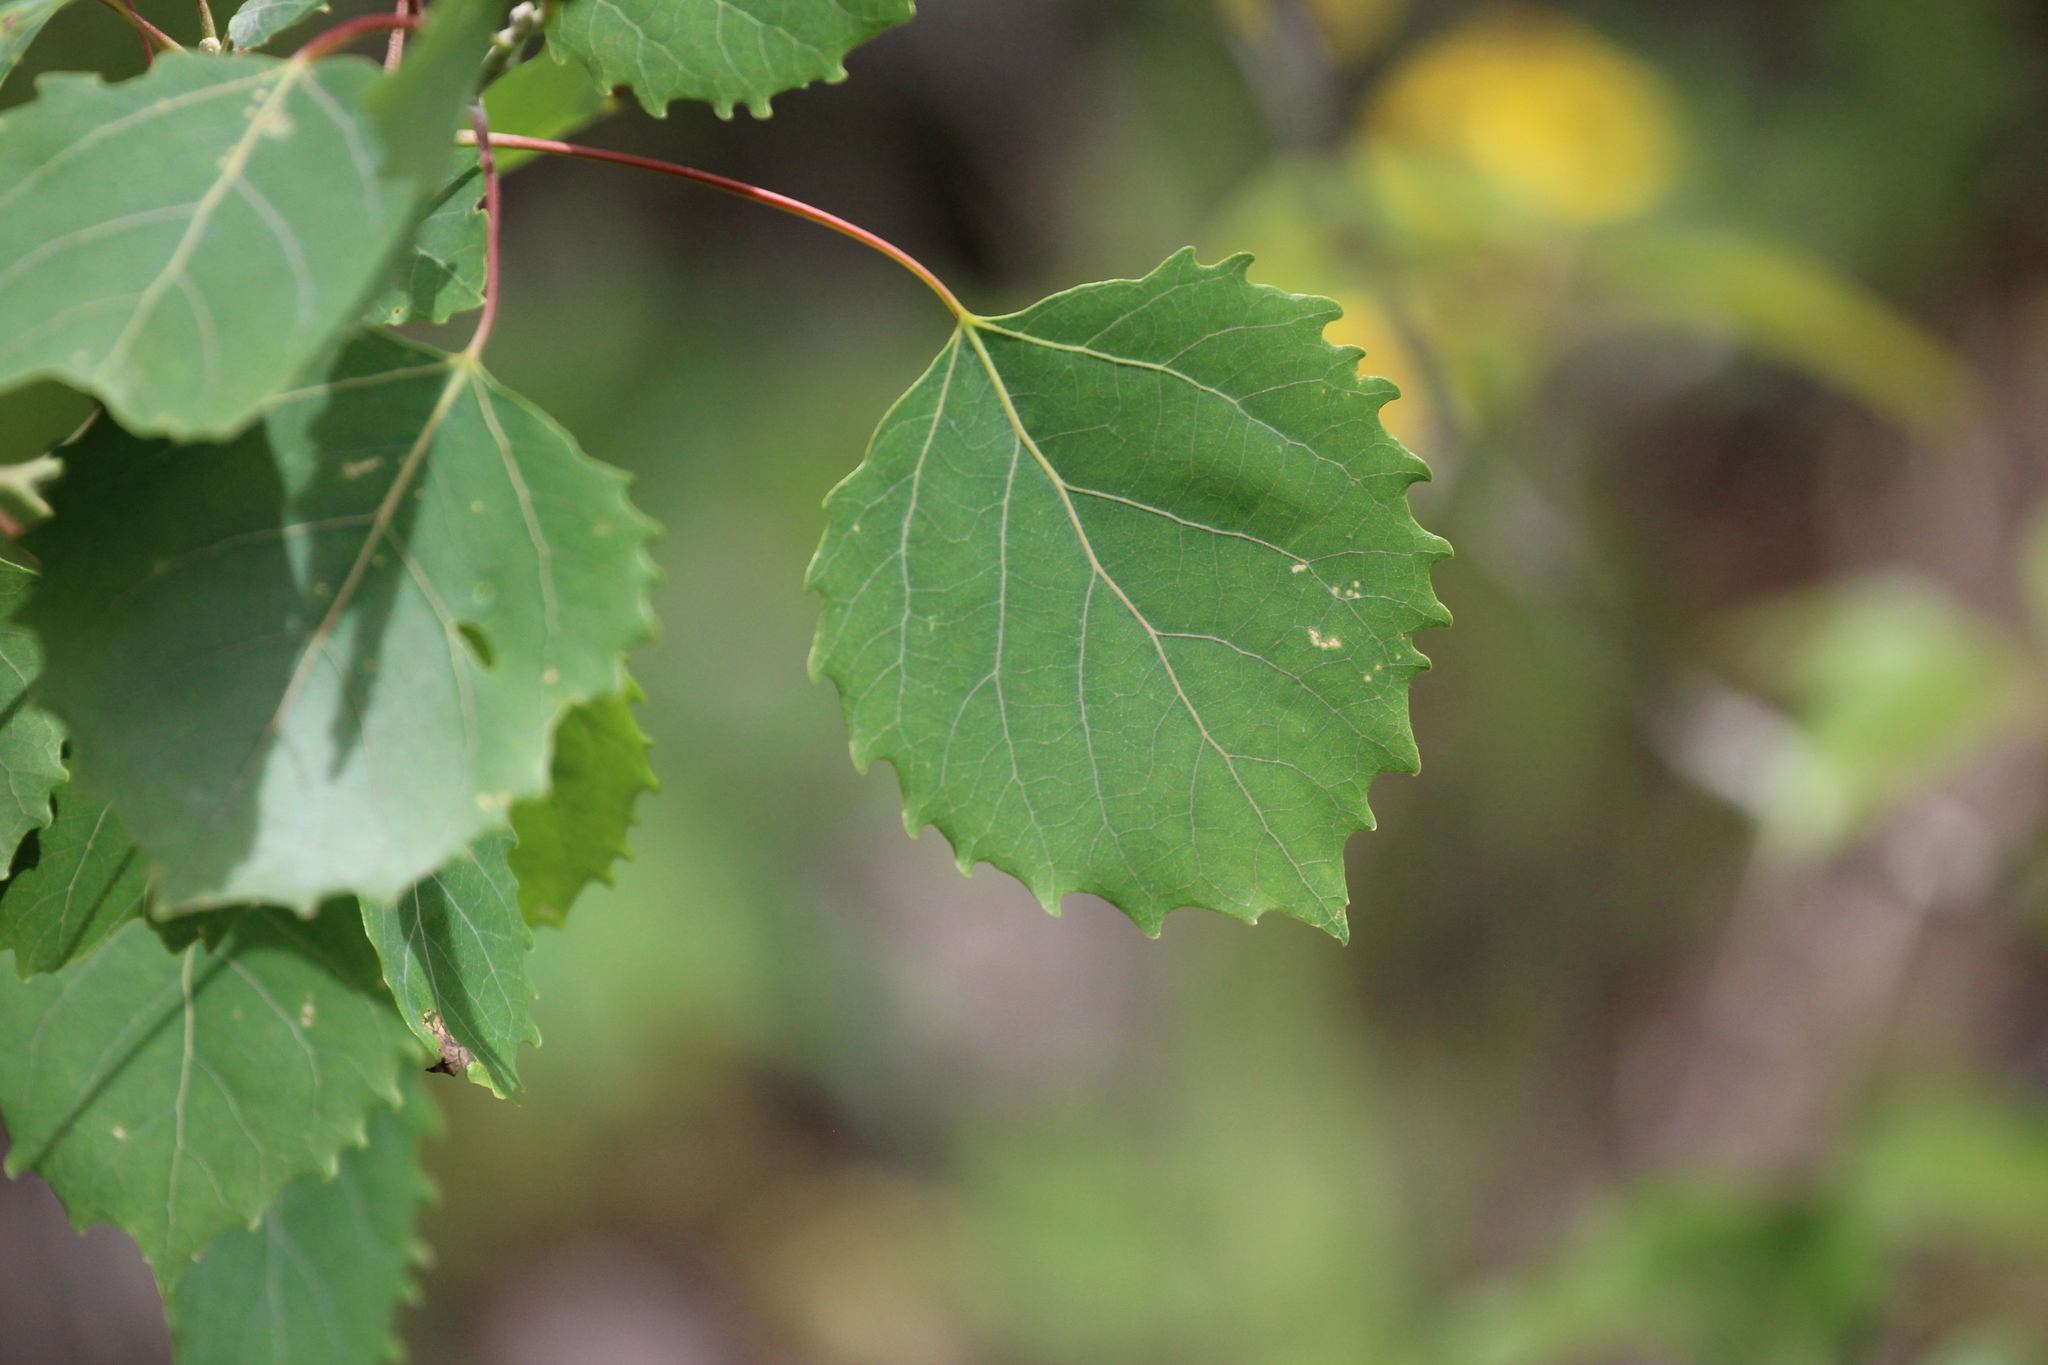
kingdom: Plantae
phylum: Tracheophyta
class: Magnoliopsida
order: Malpighiales
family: Salicaceae
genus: Populus
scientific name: Populus grandidentata
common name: Bigtooth aspen
